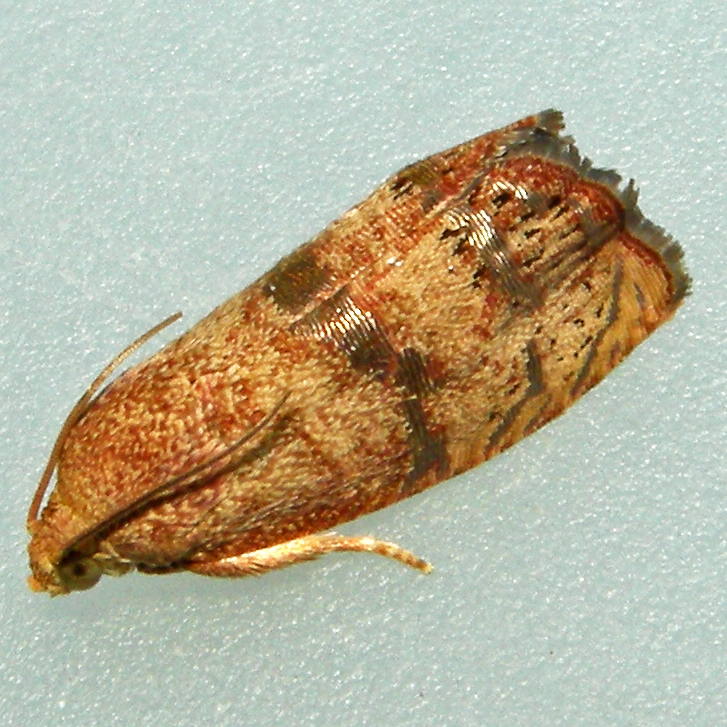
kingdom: Animalia
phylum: Arthropoda
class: Insecta
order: Lepidoptera
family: Tortricidae
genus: Cydia
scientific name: Cydia latiferreana
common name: Filbertworm moth
